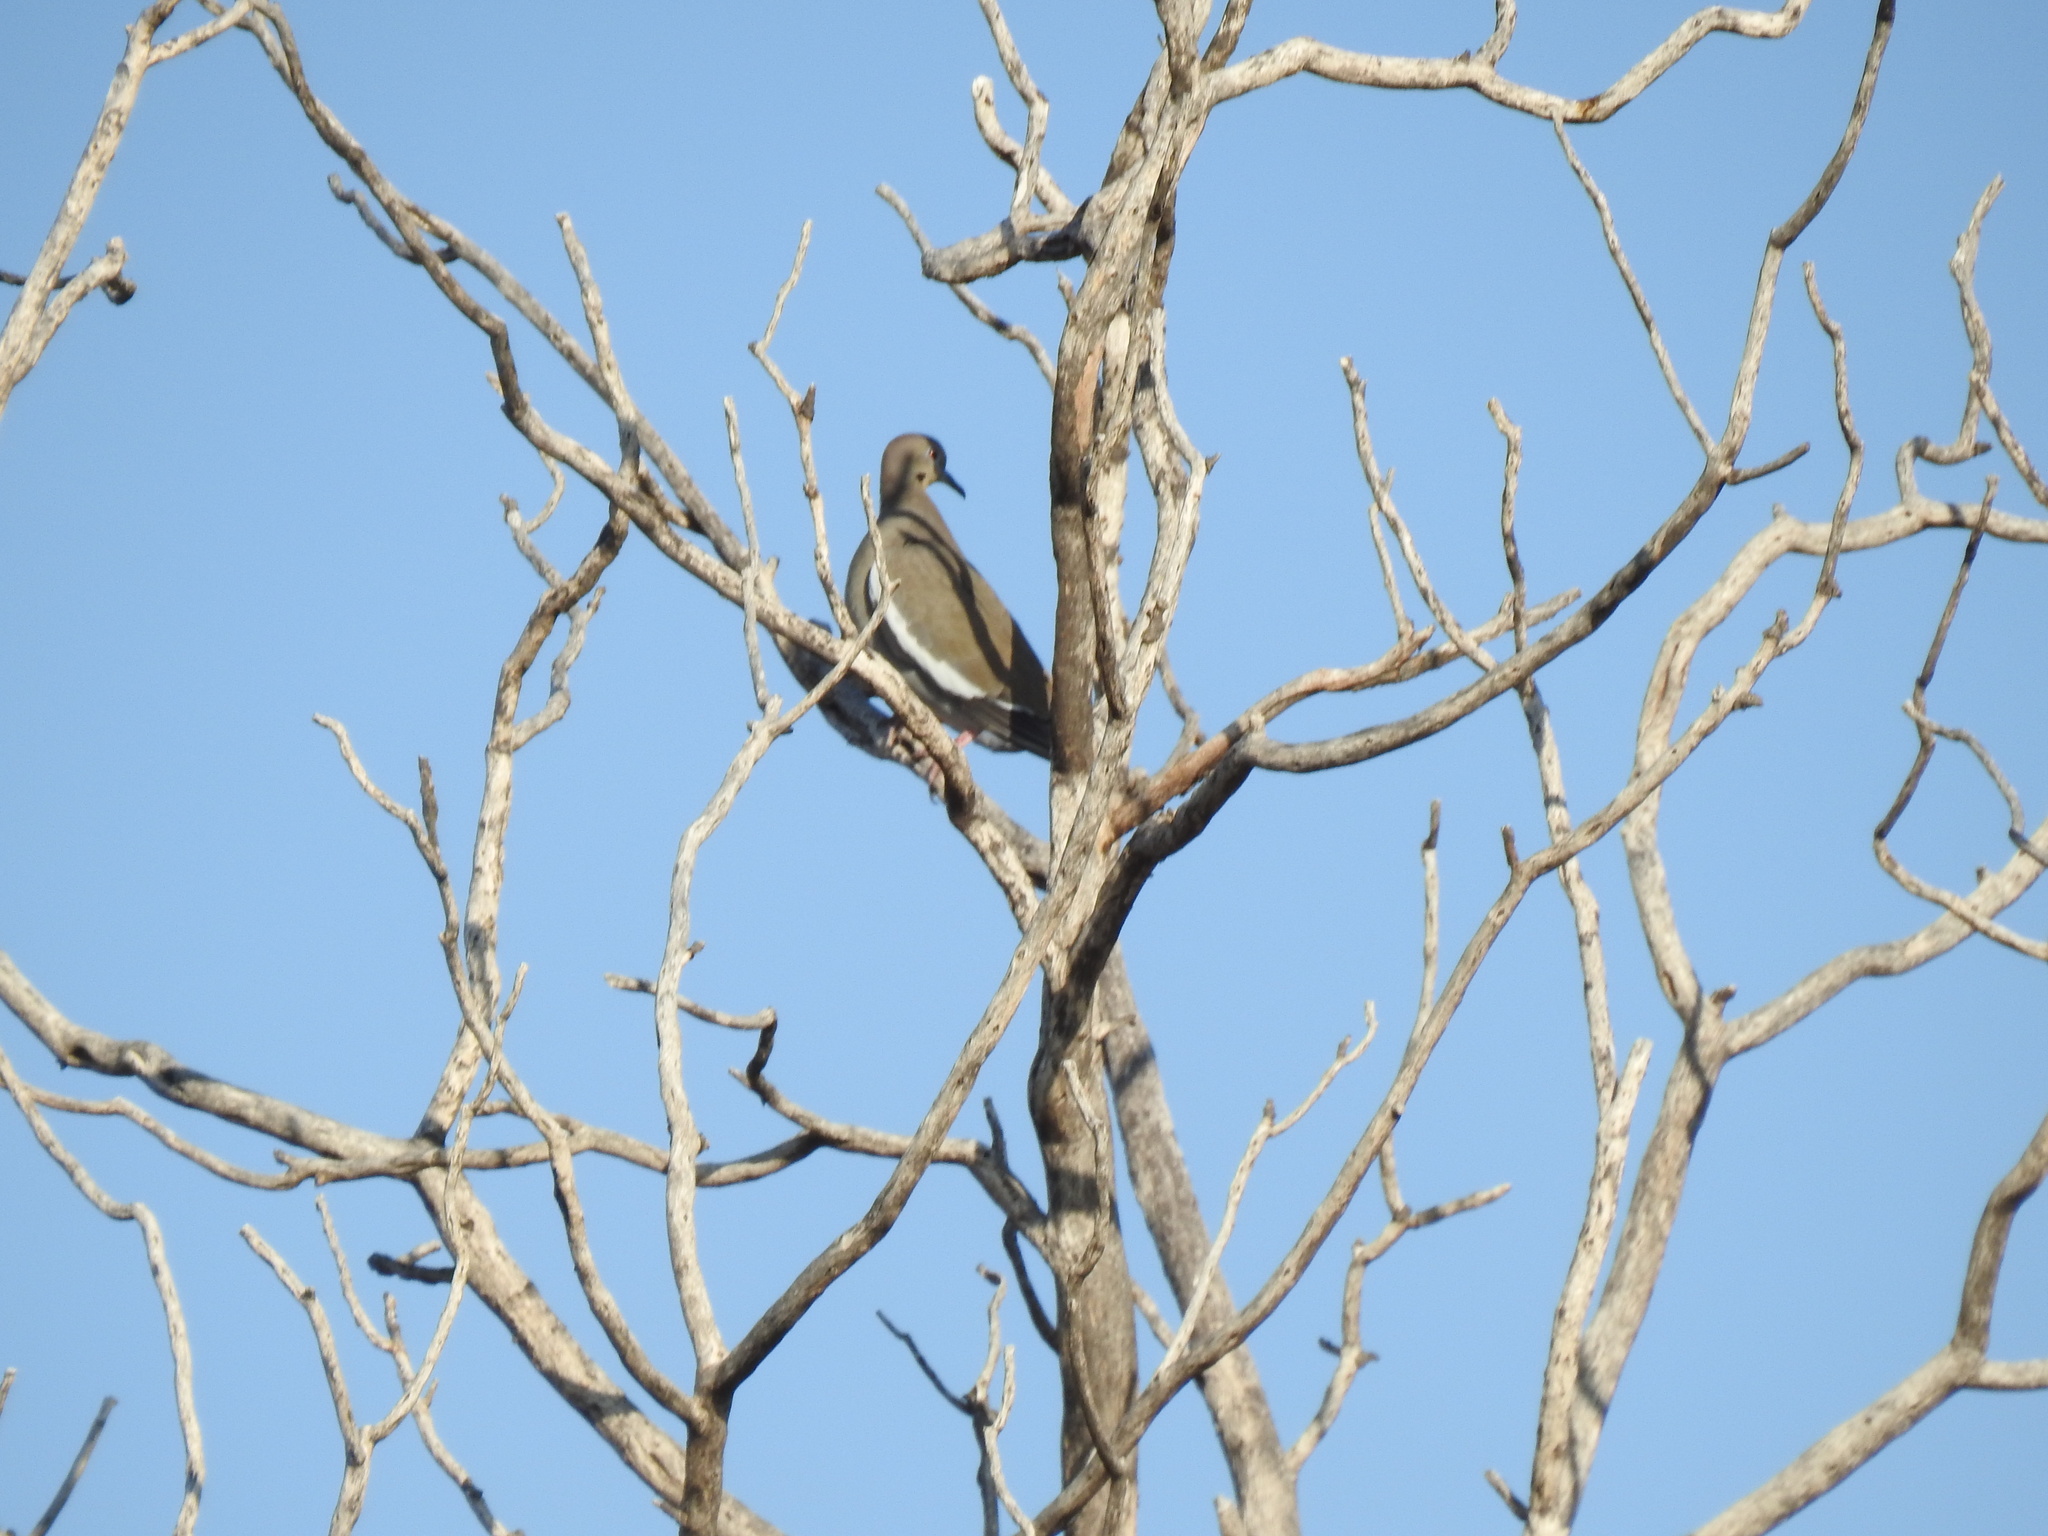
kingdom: Animalia
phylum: Chordata
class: Aves
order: Columbiformes
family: Columbidae
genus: Zenaida
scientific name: Zenaida asiatica
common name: White-winged dove
